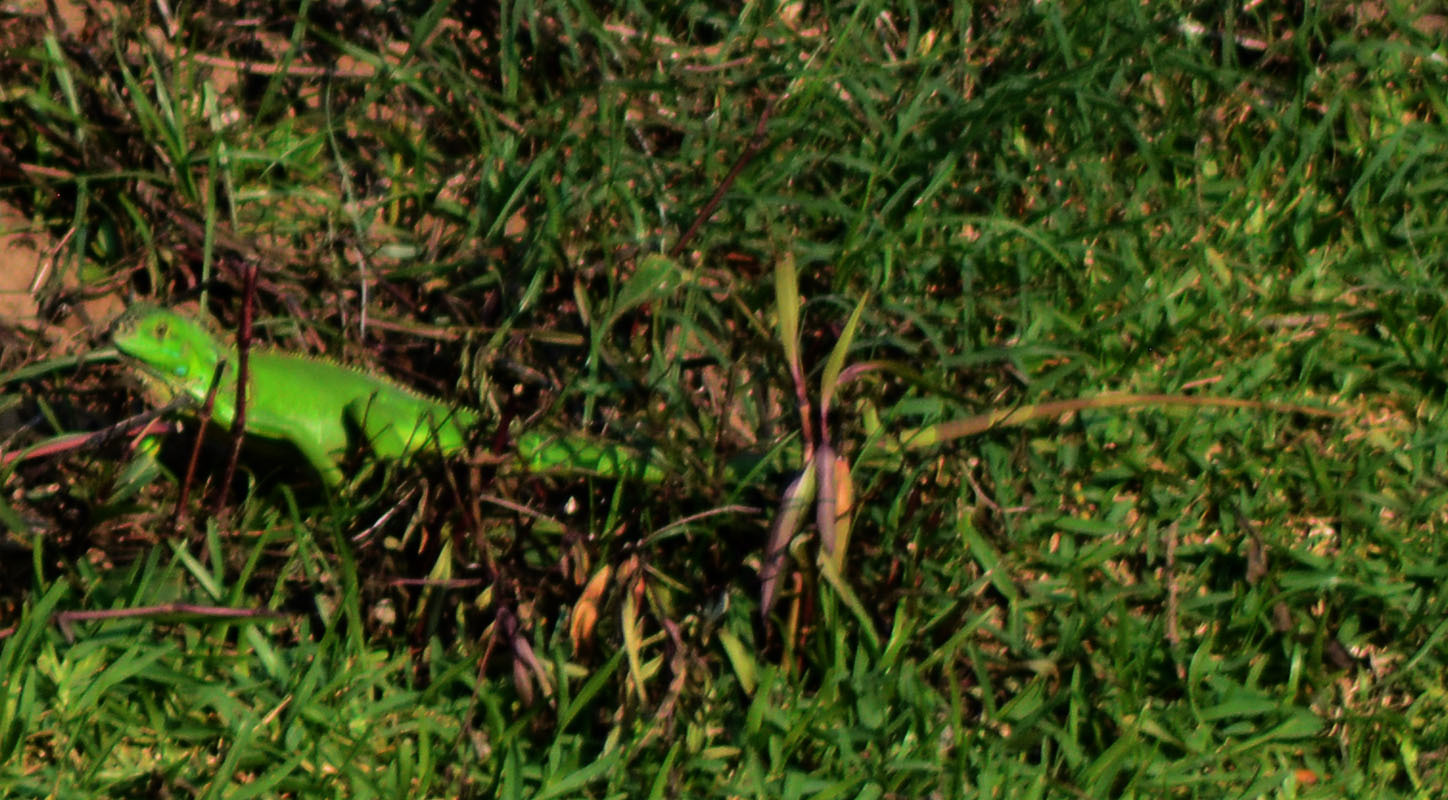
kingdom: Animalia
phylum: Chordata
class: Squamata
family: Iguanidae
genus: Iguana
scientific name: Iguana iguana
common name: Green iguana
